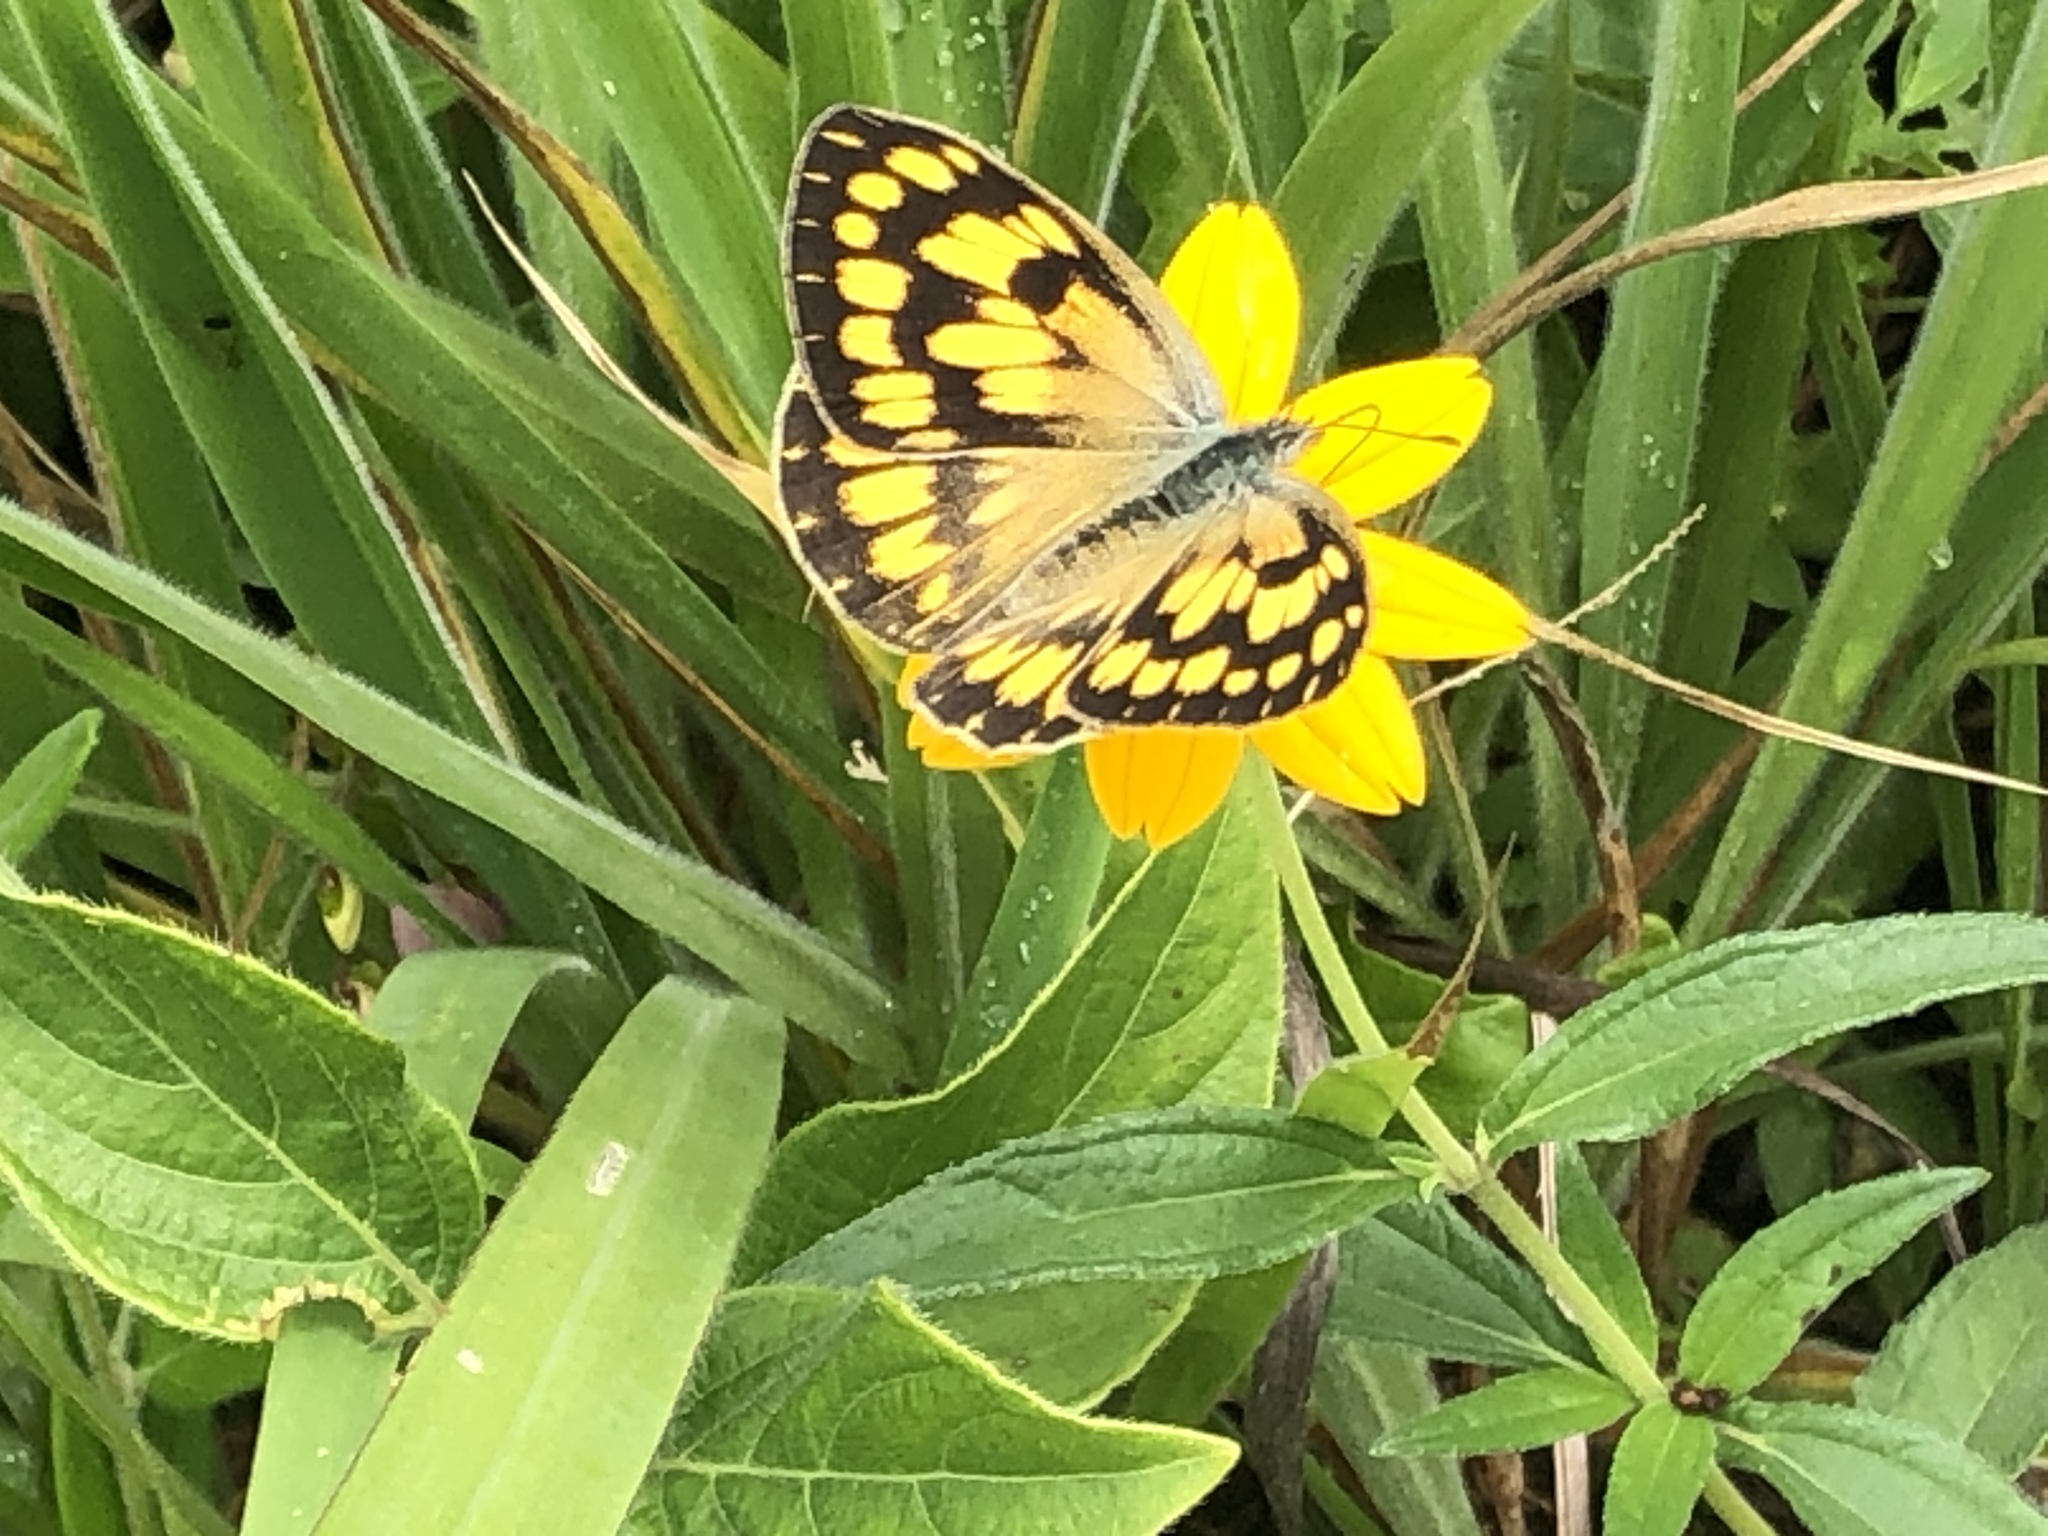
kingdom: Animalia
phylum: Arthropoda
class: Insecta
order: Lepidoptera
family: Pieridae
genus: Colotis
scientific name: Colotis aurigineus
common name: African golden arab
